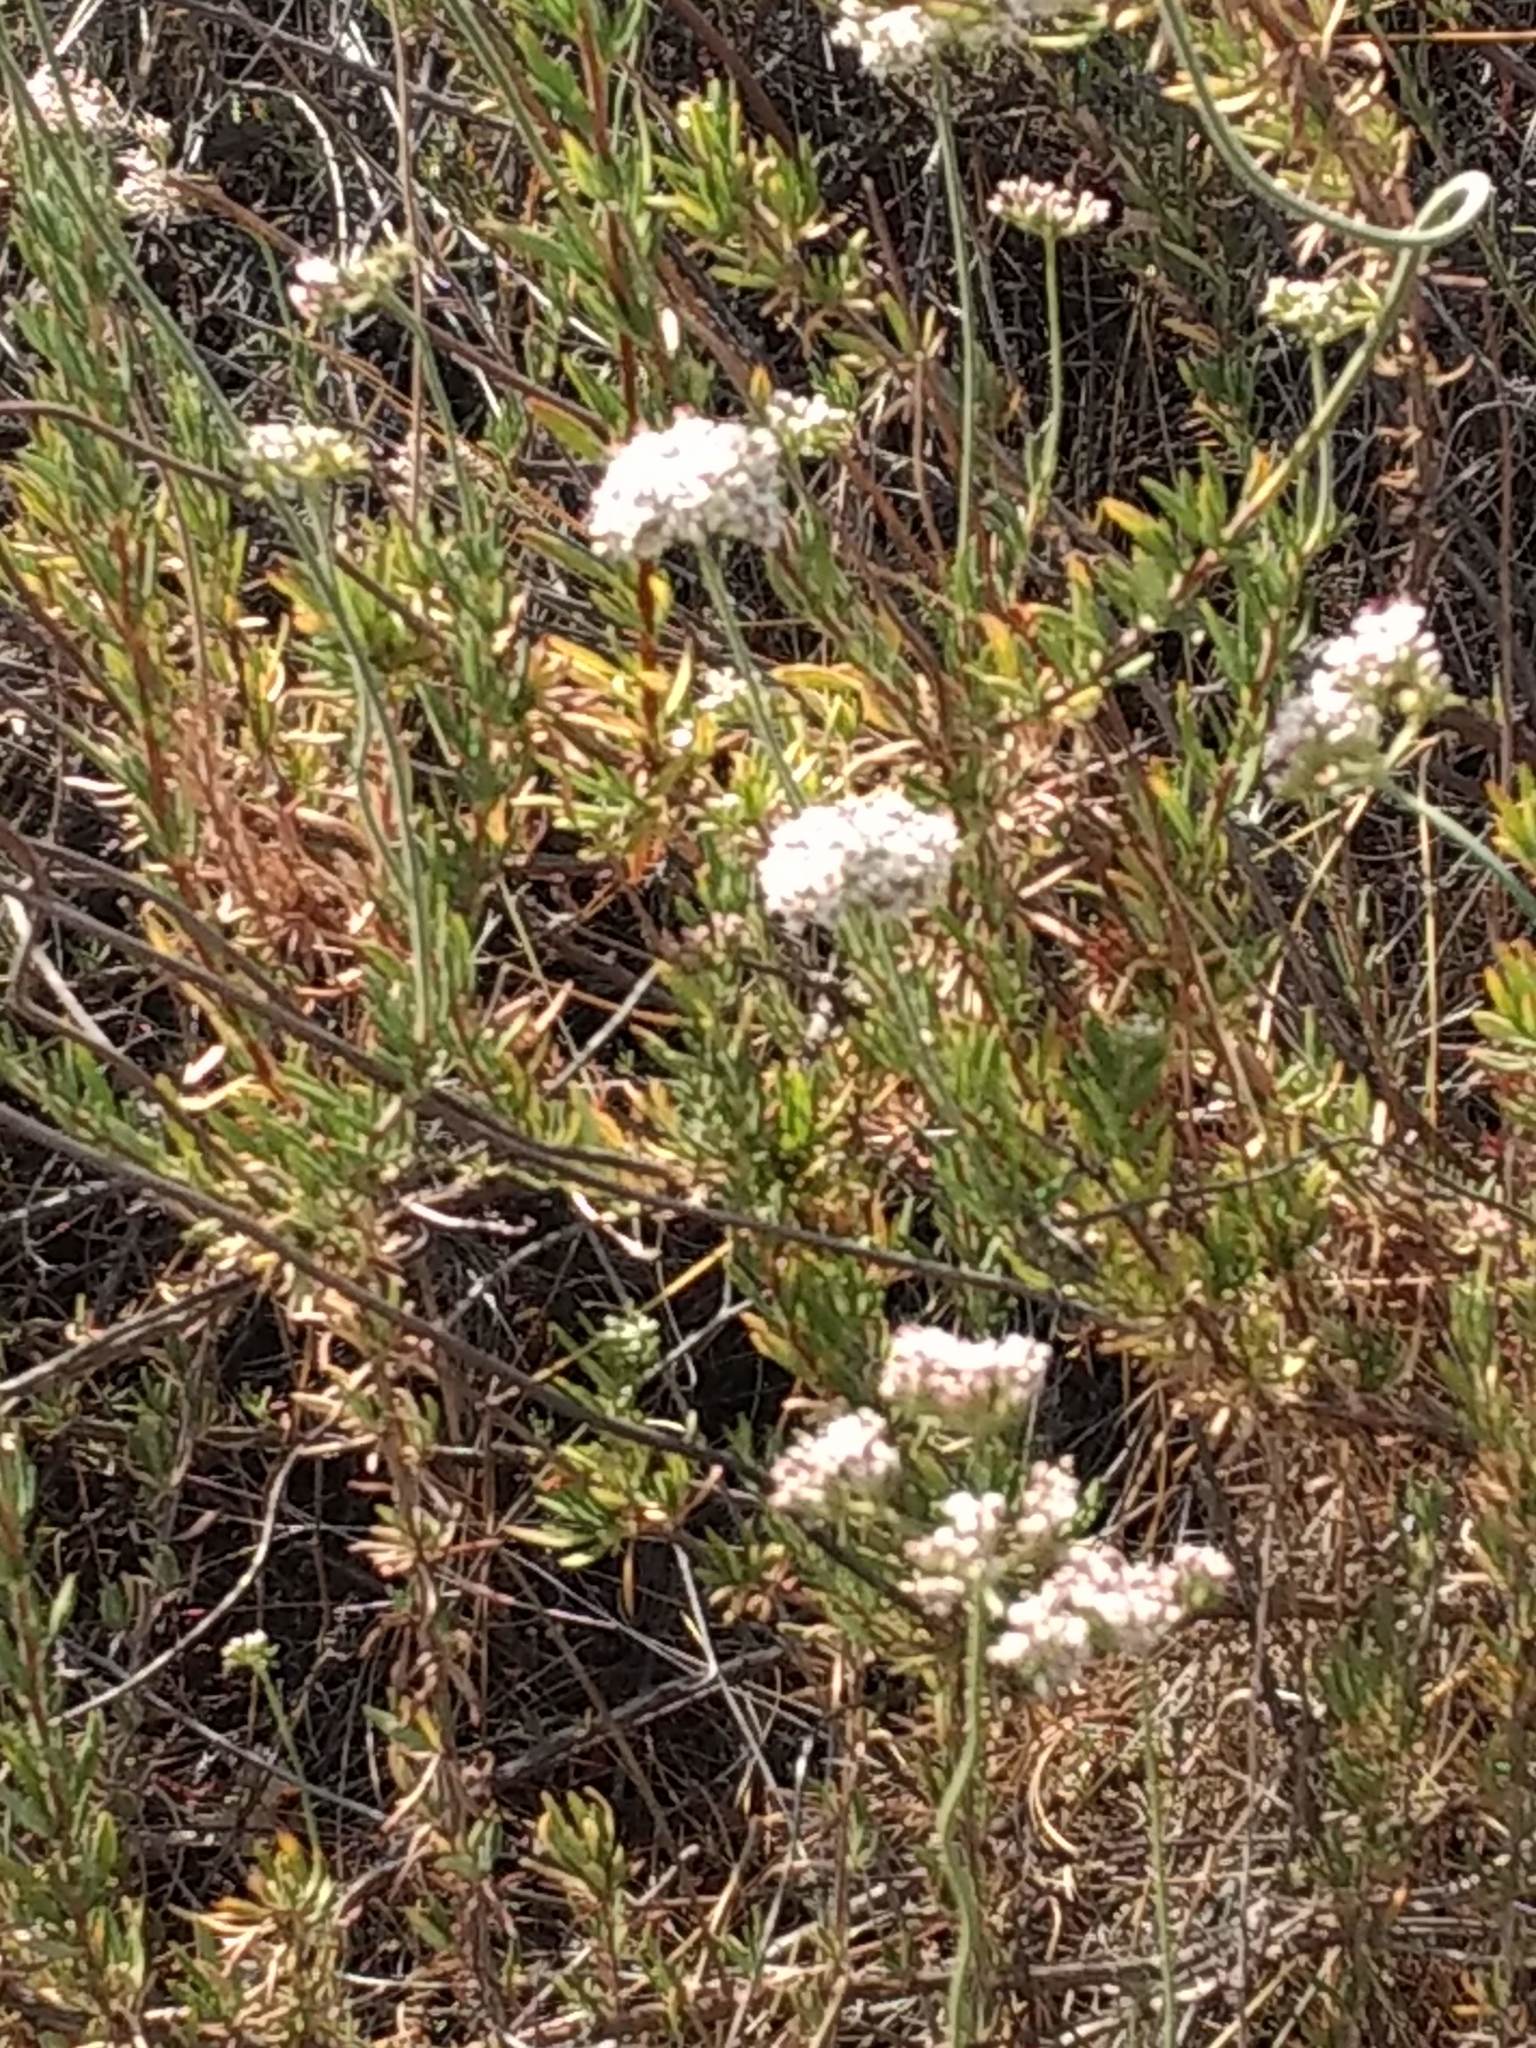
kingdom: Plantae
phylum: Tracheophyta
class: Magnoliopsida
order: Caryophyllales
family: Polygonaceae
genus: Eriogonum
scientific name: Eriogonum fasciculatum
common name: California wild buckwheat
